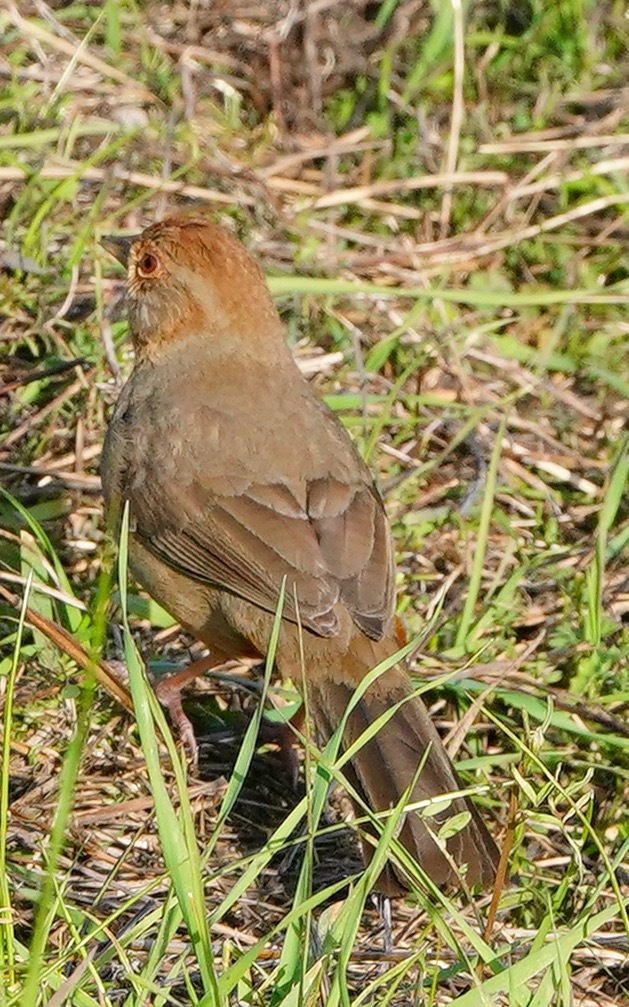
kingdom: Animalia
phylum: Chordata
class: Aves
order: Passeriformes
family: Passerellidae
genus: Melozone
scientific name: Melozone crissalis
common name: California towhee
